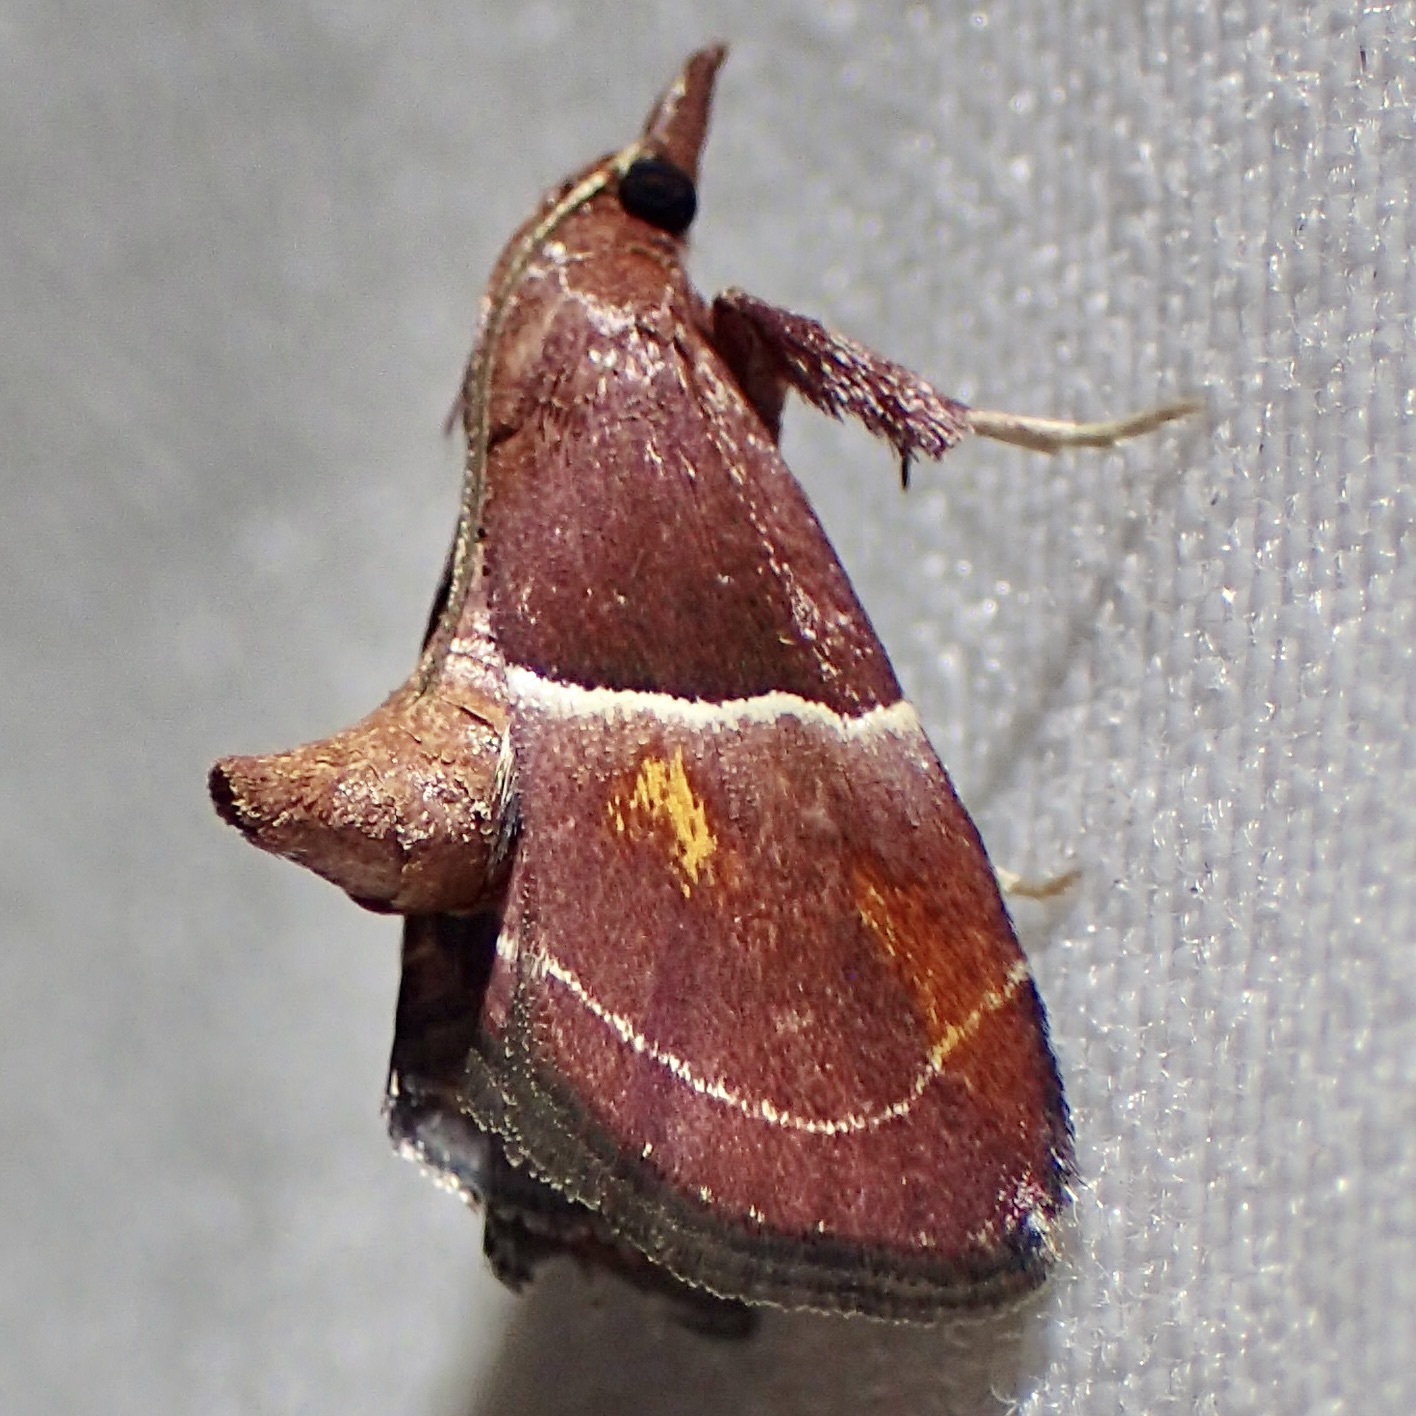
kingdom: Animalia
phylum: Arthropoda
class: Insecta
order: Lepidoptera
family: Pyralidae
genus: Penthesilea
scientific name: Penthesilea sacculalis
